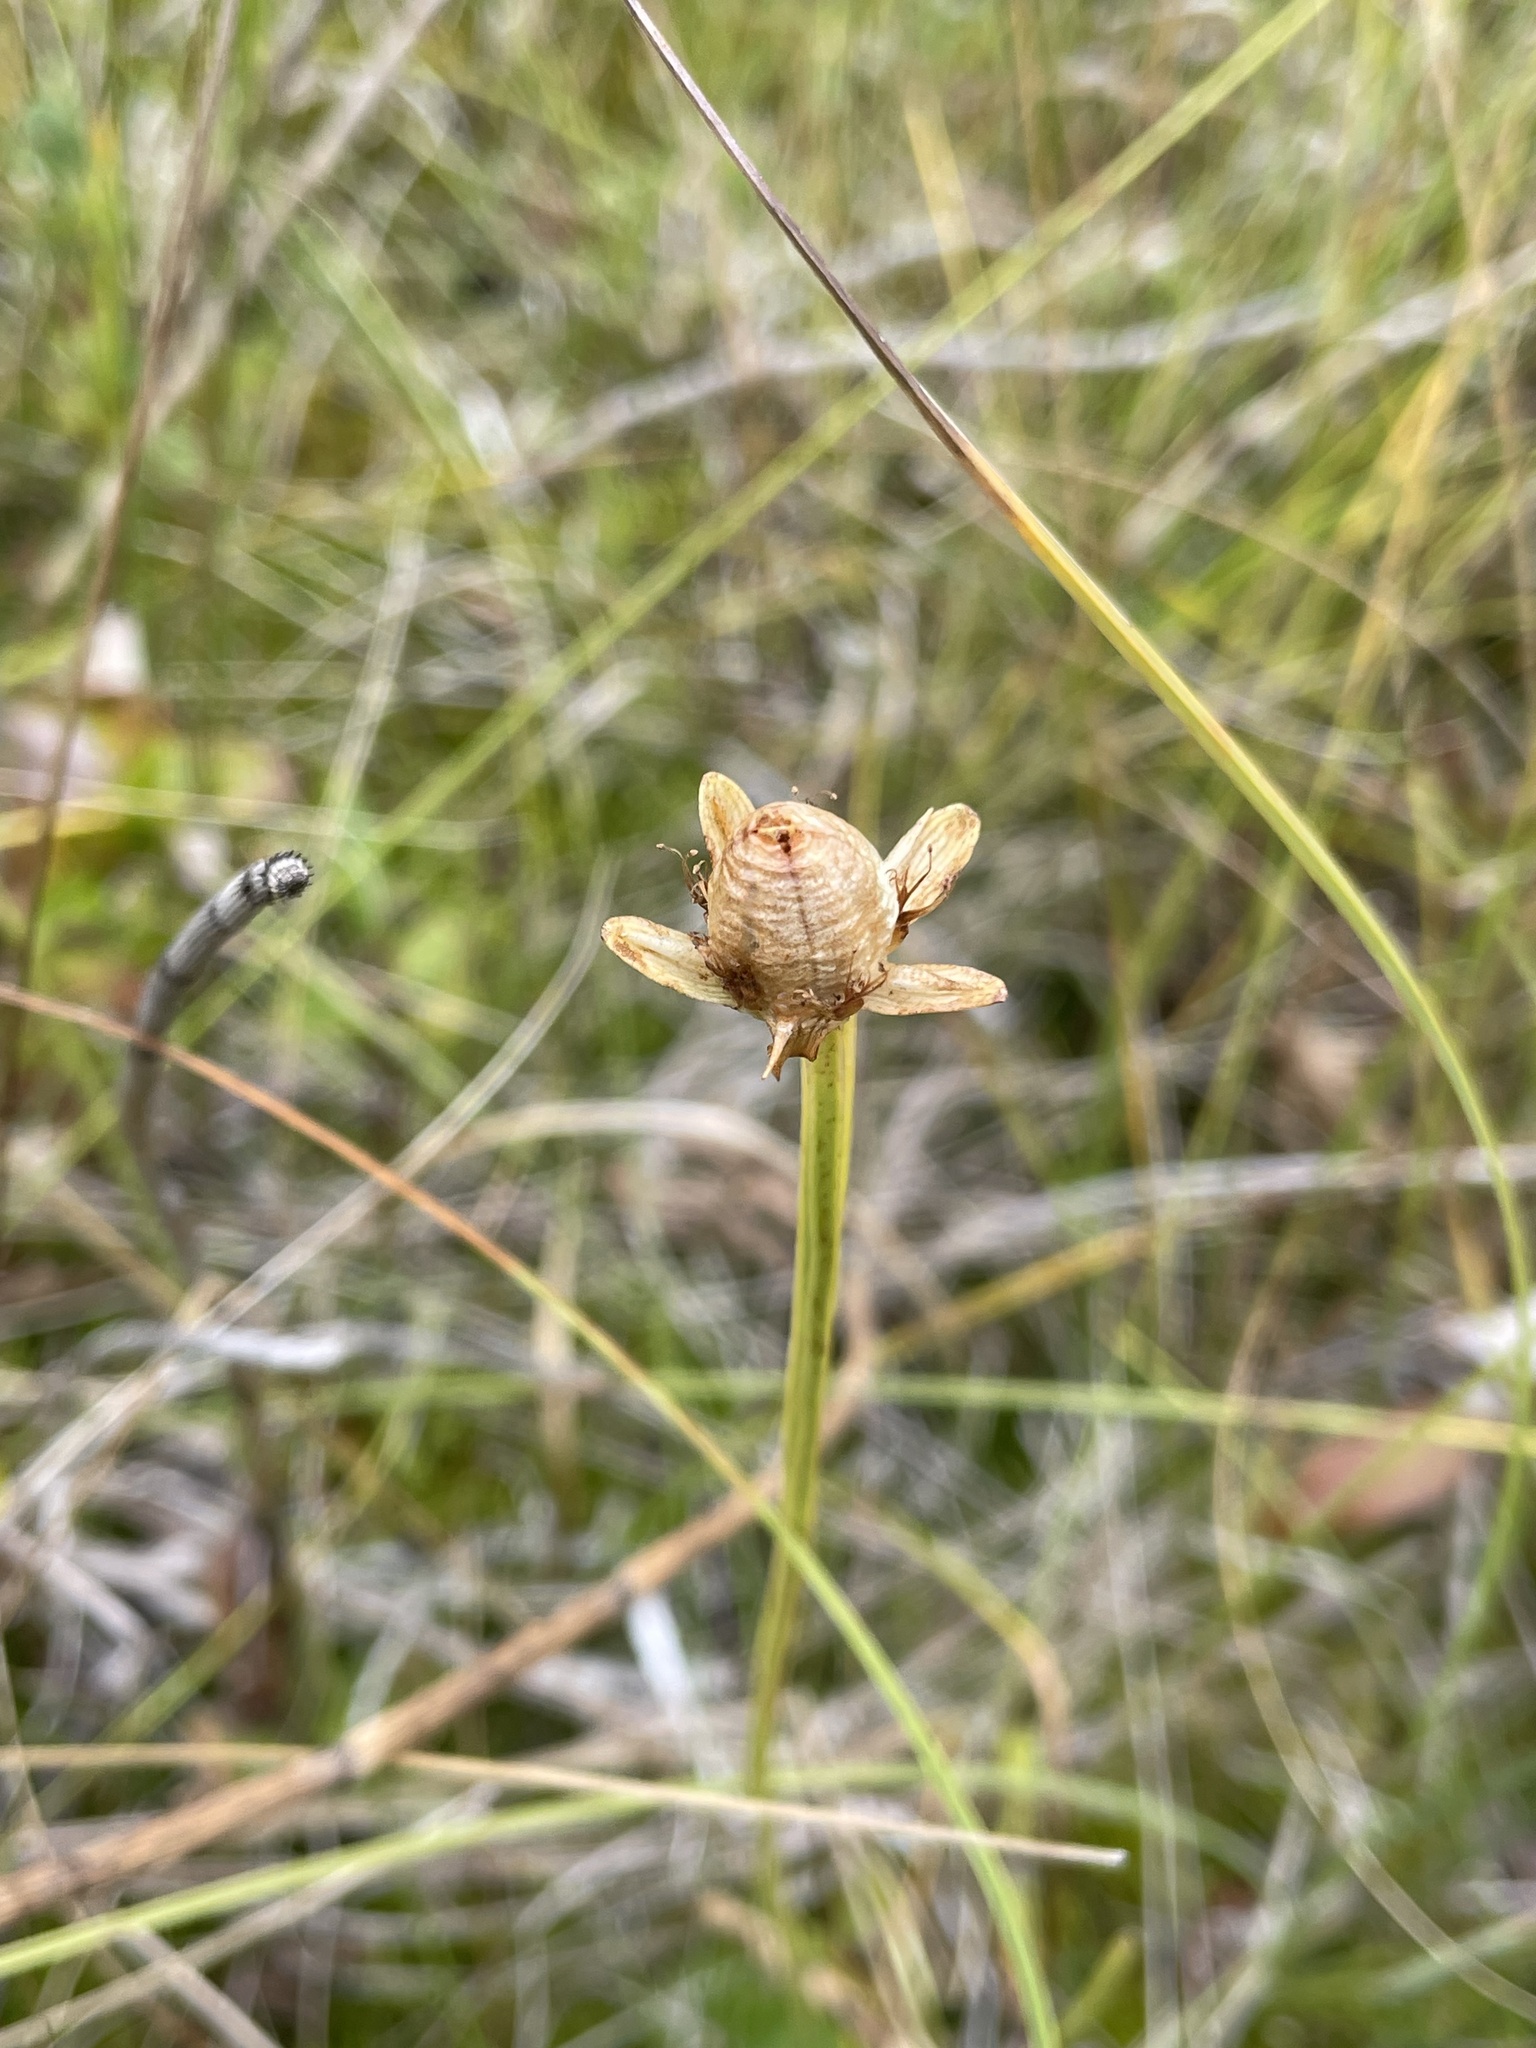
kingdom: Plantae
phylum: Tracheophyta
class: Magnoliopsida
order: Celastrales
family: Parnassiaceae
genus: Parnassia
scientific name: Parnassia palustris
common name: Grass-of-parnassus
